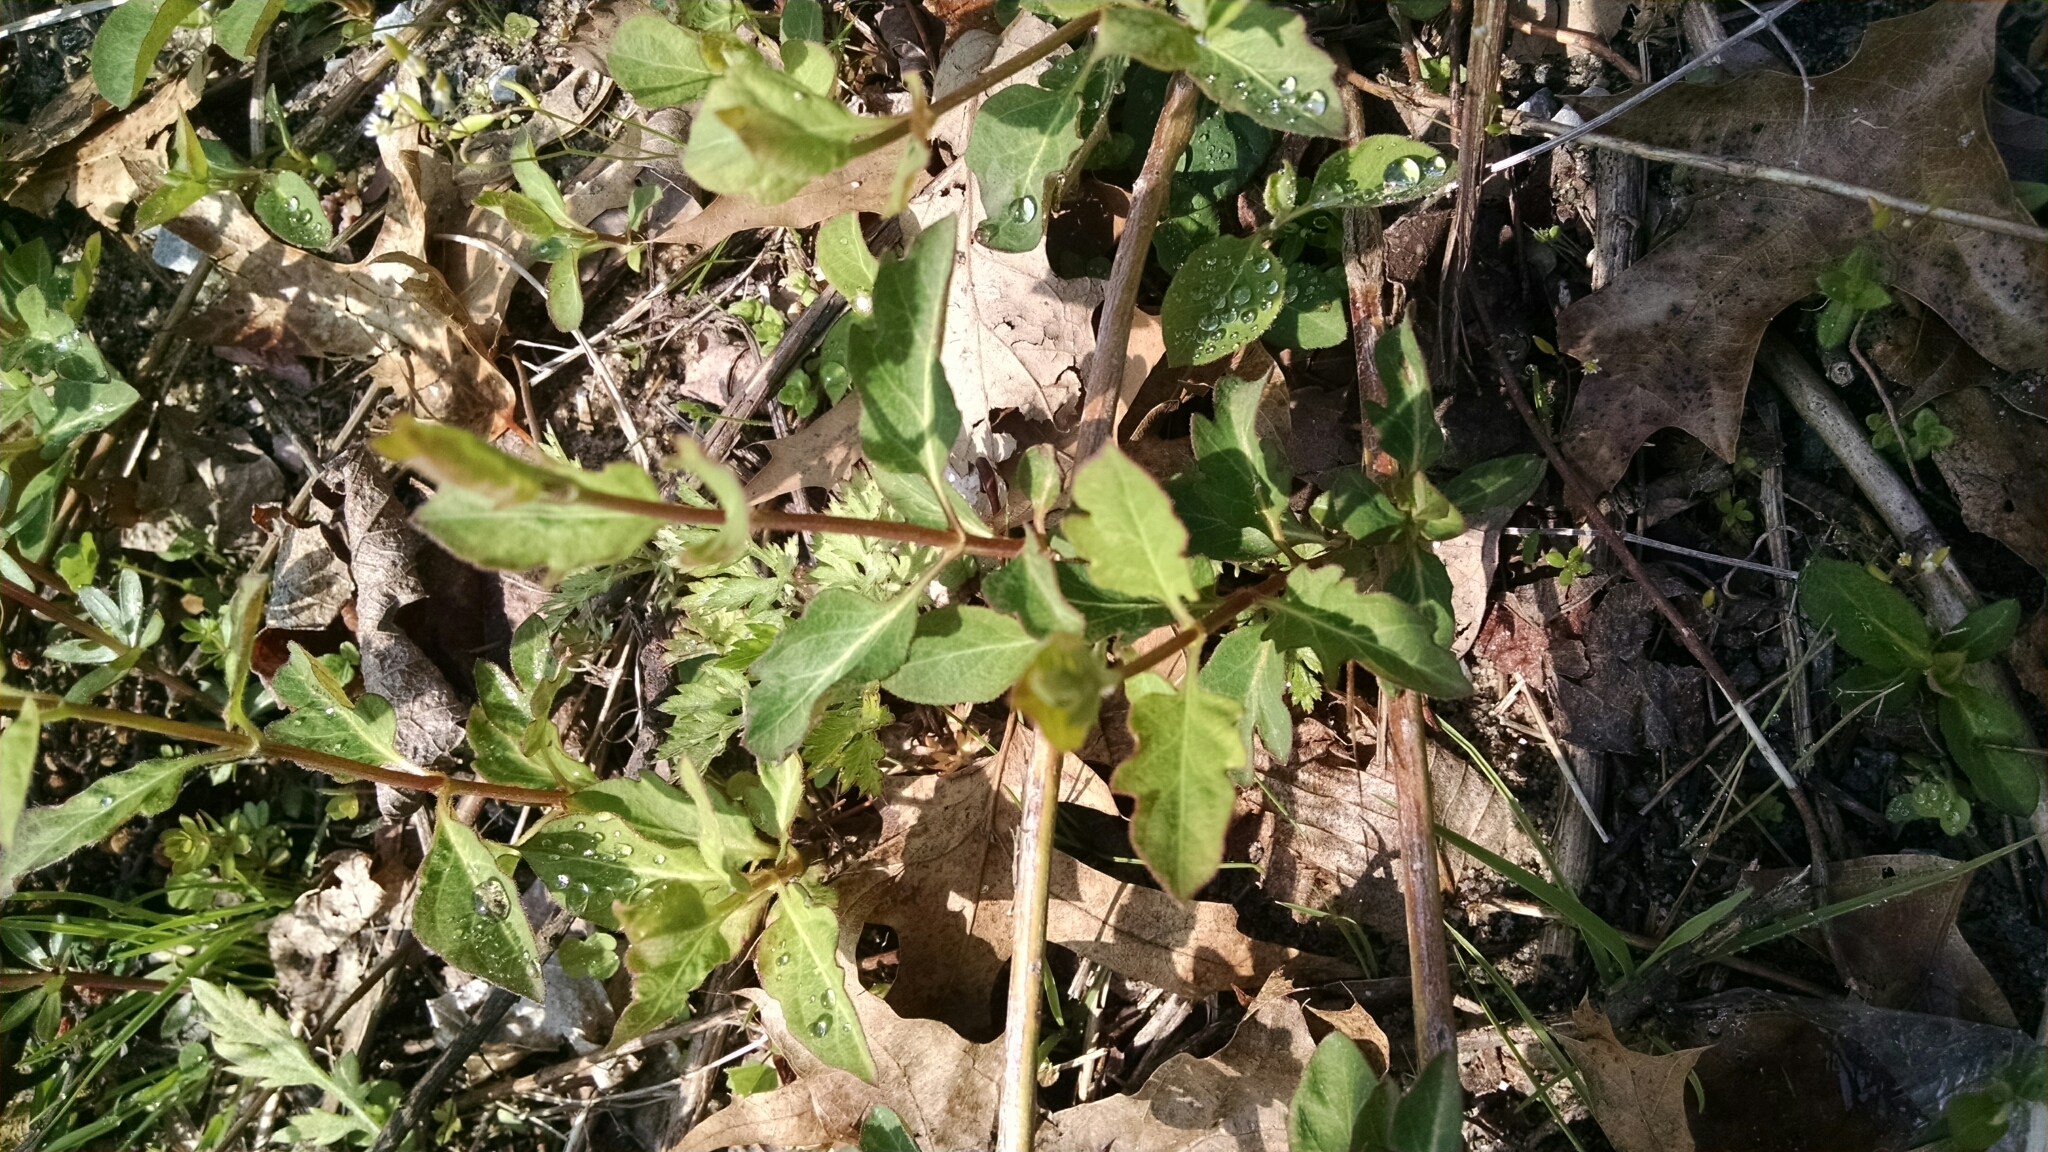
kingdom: Plantae
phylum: Tracheophyta
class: Magnoliopsida
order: Dipsacales
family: Caprifoliaceae
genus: Lonicera
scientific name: Lonicera japonica
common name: Japanese honeysuckle
